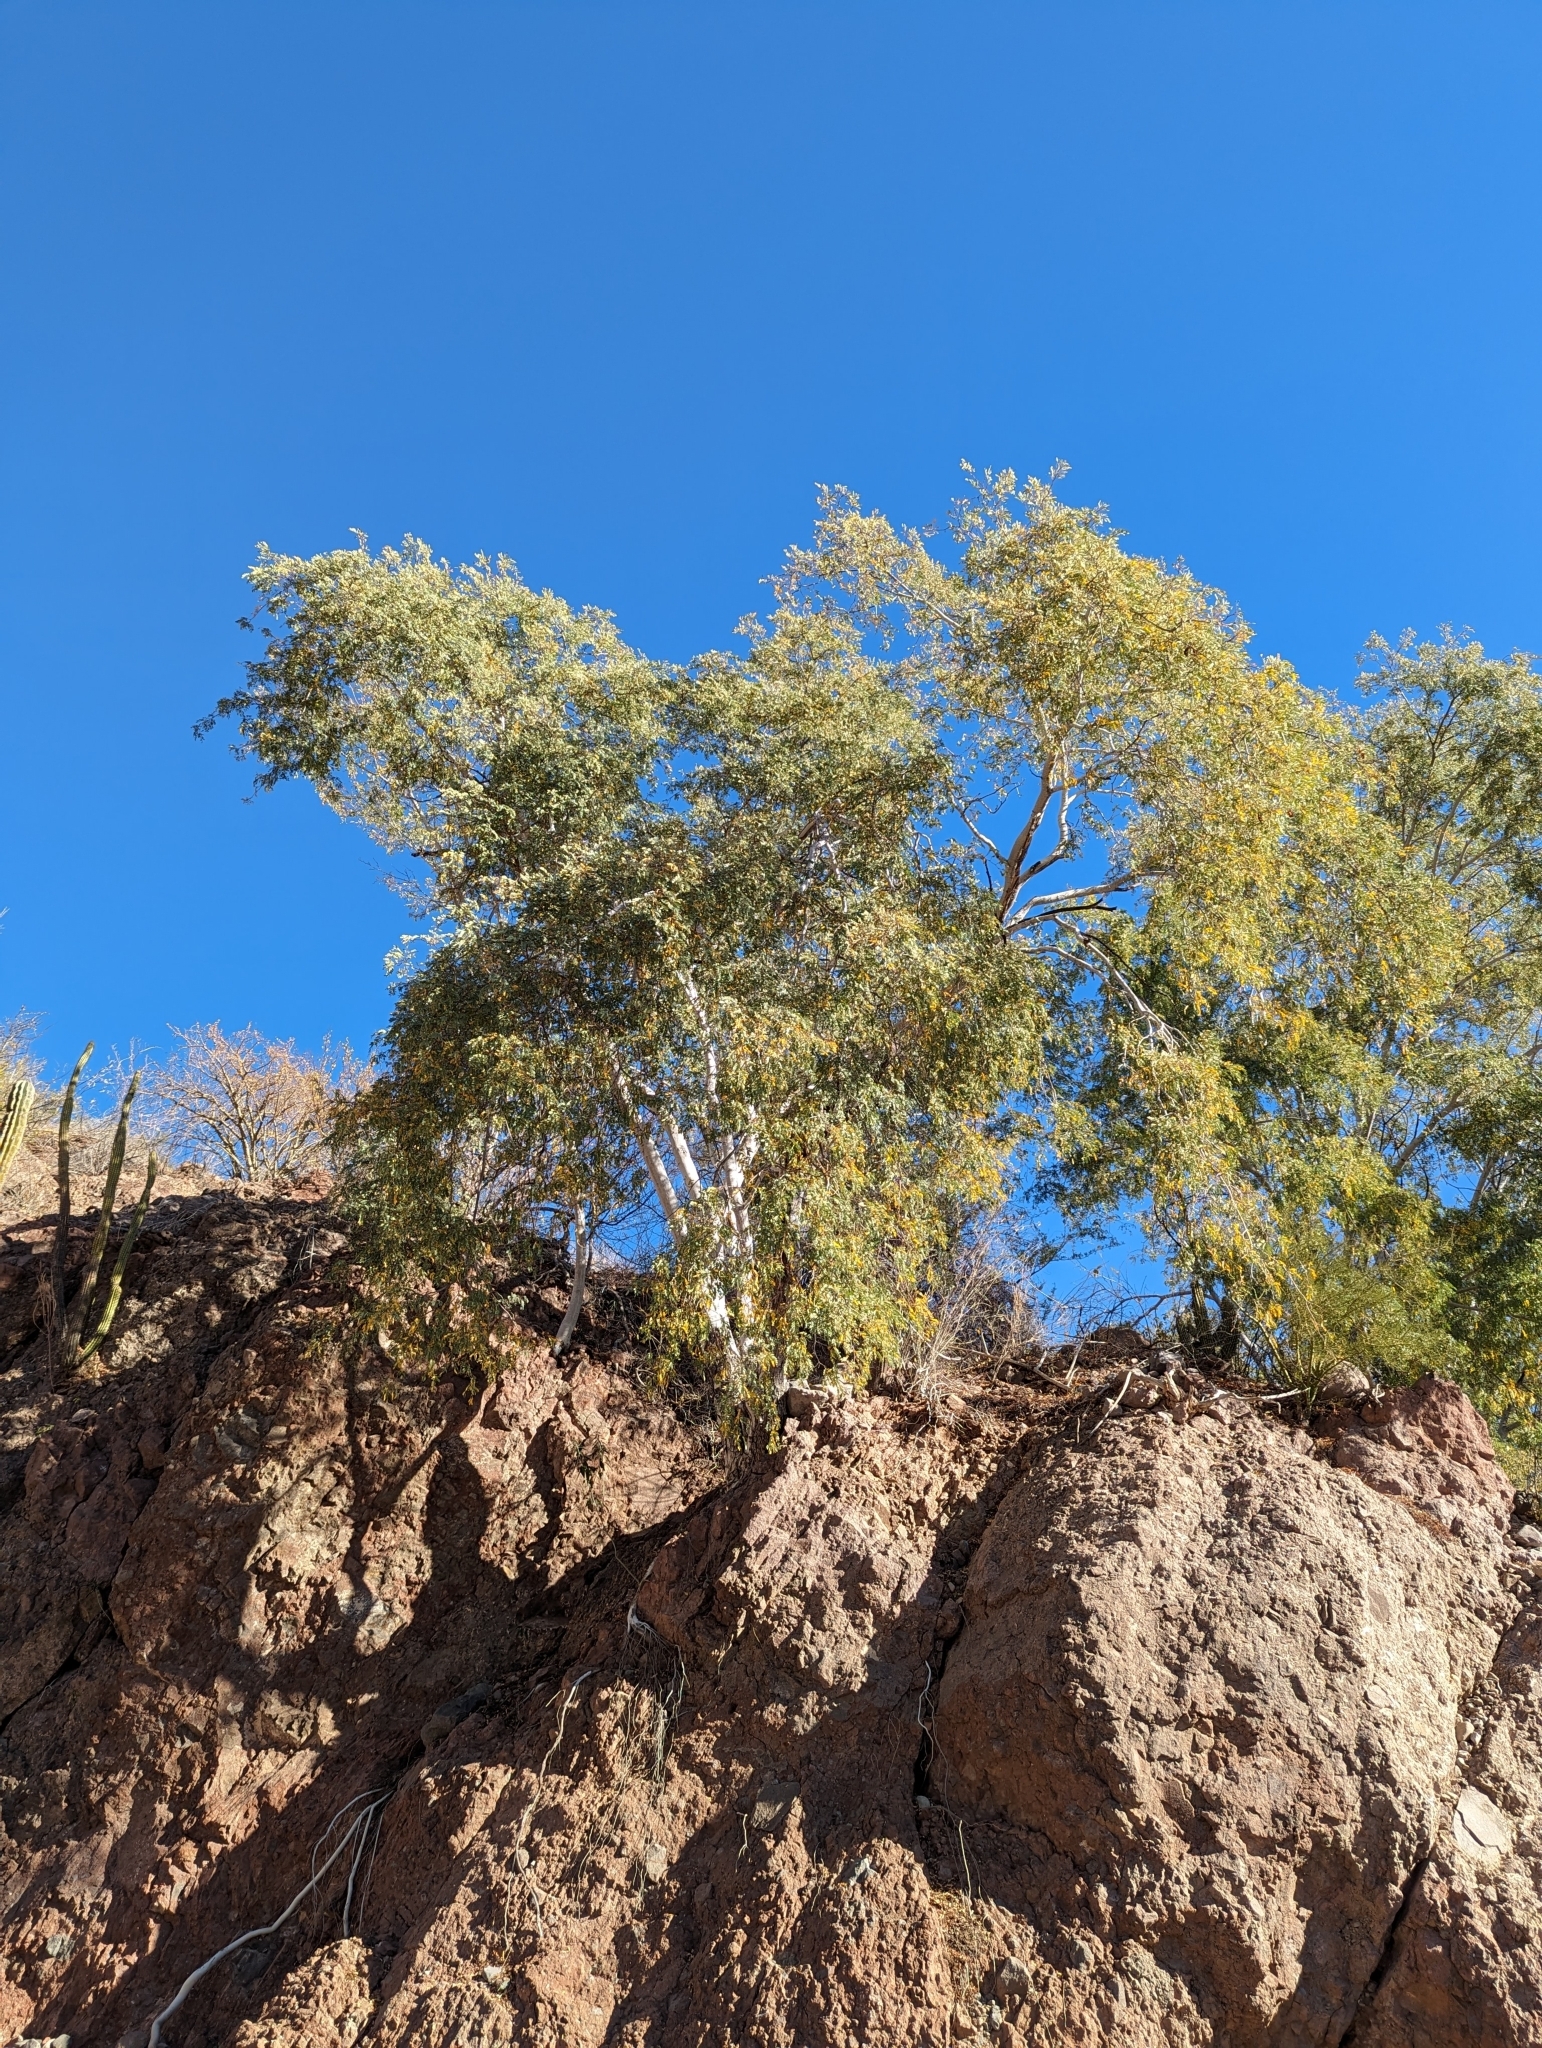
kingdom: Plantae
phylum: Tracheophyta
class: Magnoliopsida
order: Fabales
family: Fabaceae
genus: Lysiloma
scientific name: Lysiloma candidum
